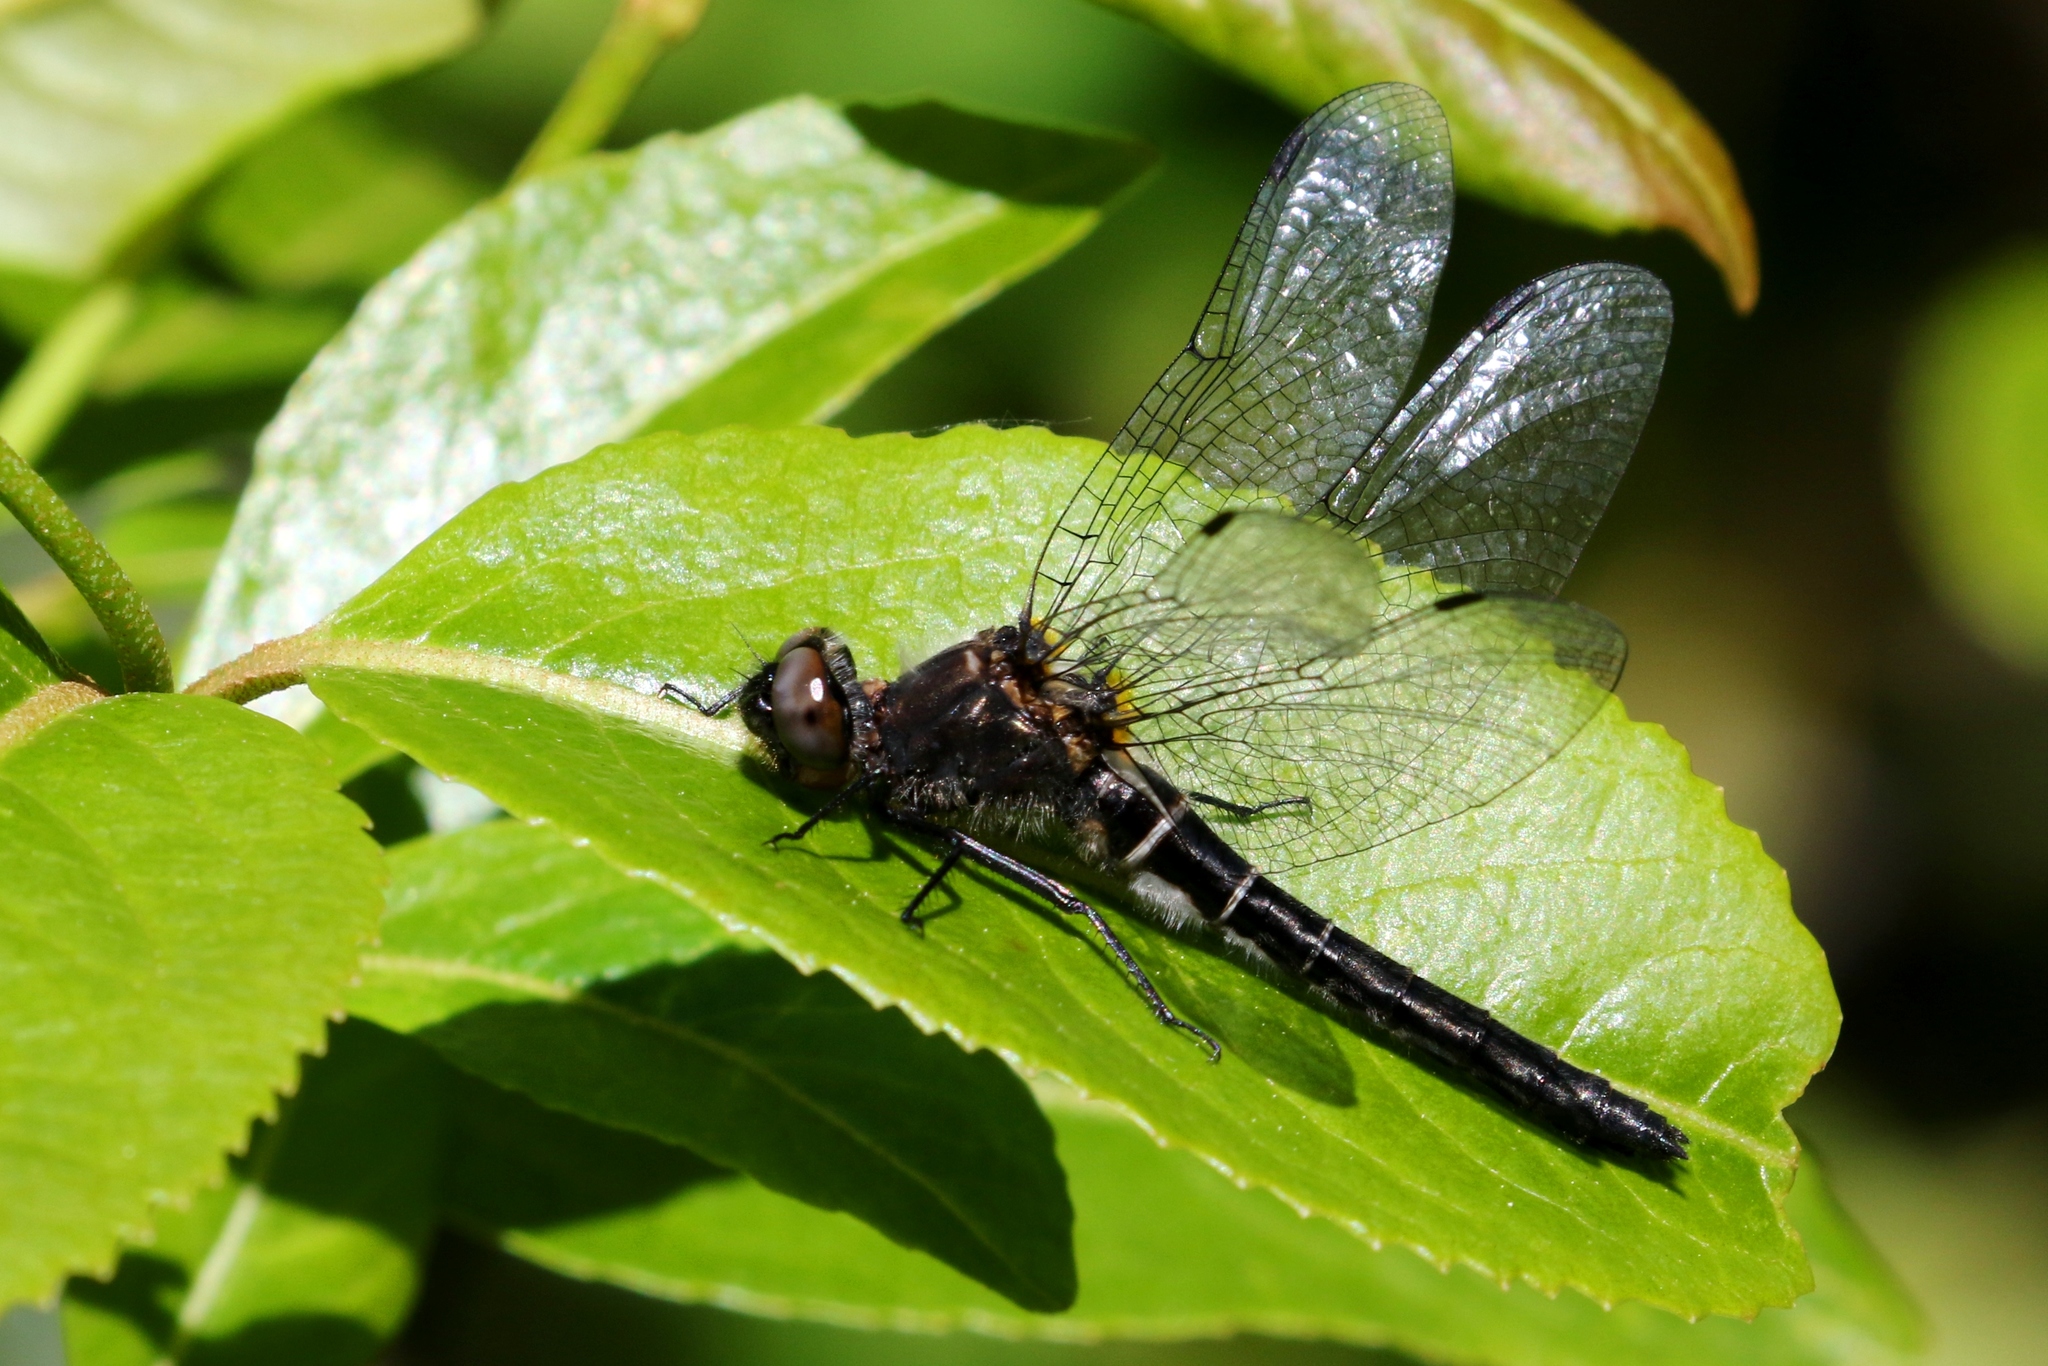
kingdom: Animalia
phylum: Arthropoda
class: Insecta
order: Odonata
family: Corduliidae
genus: Williamsonia
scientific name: Williamsonia fletcheri
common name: Ebony boghaunter
